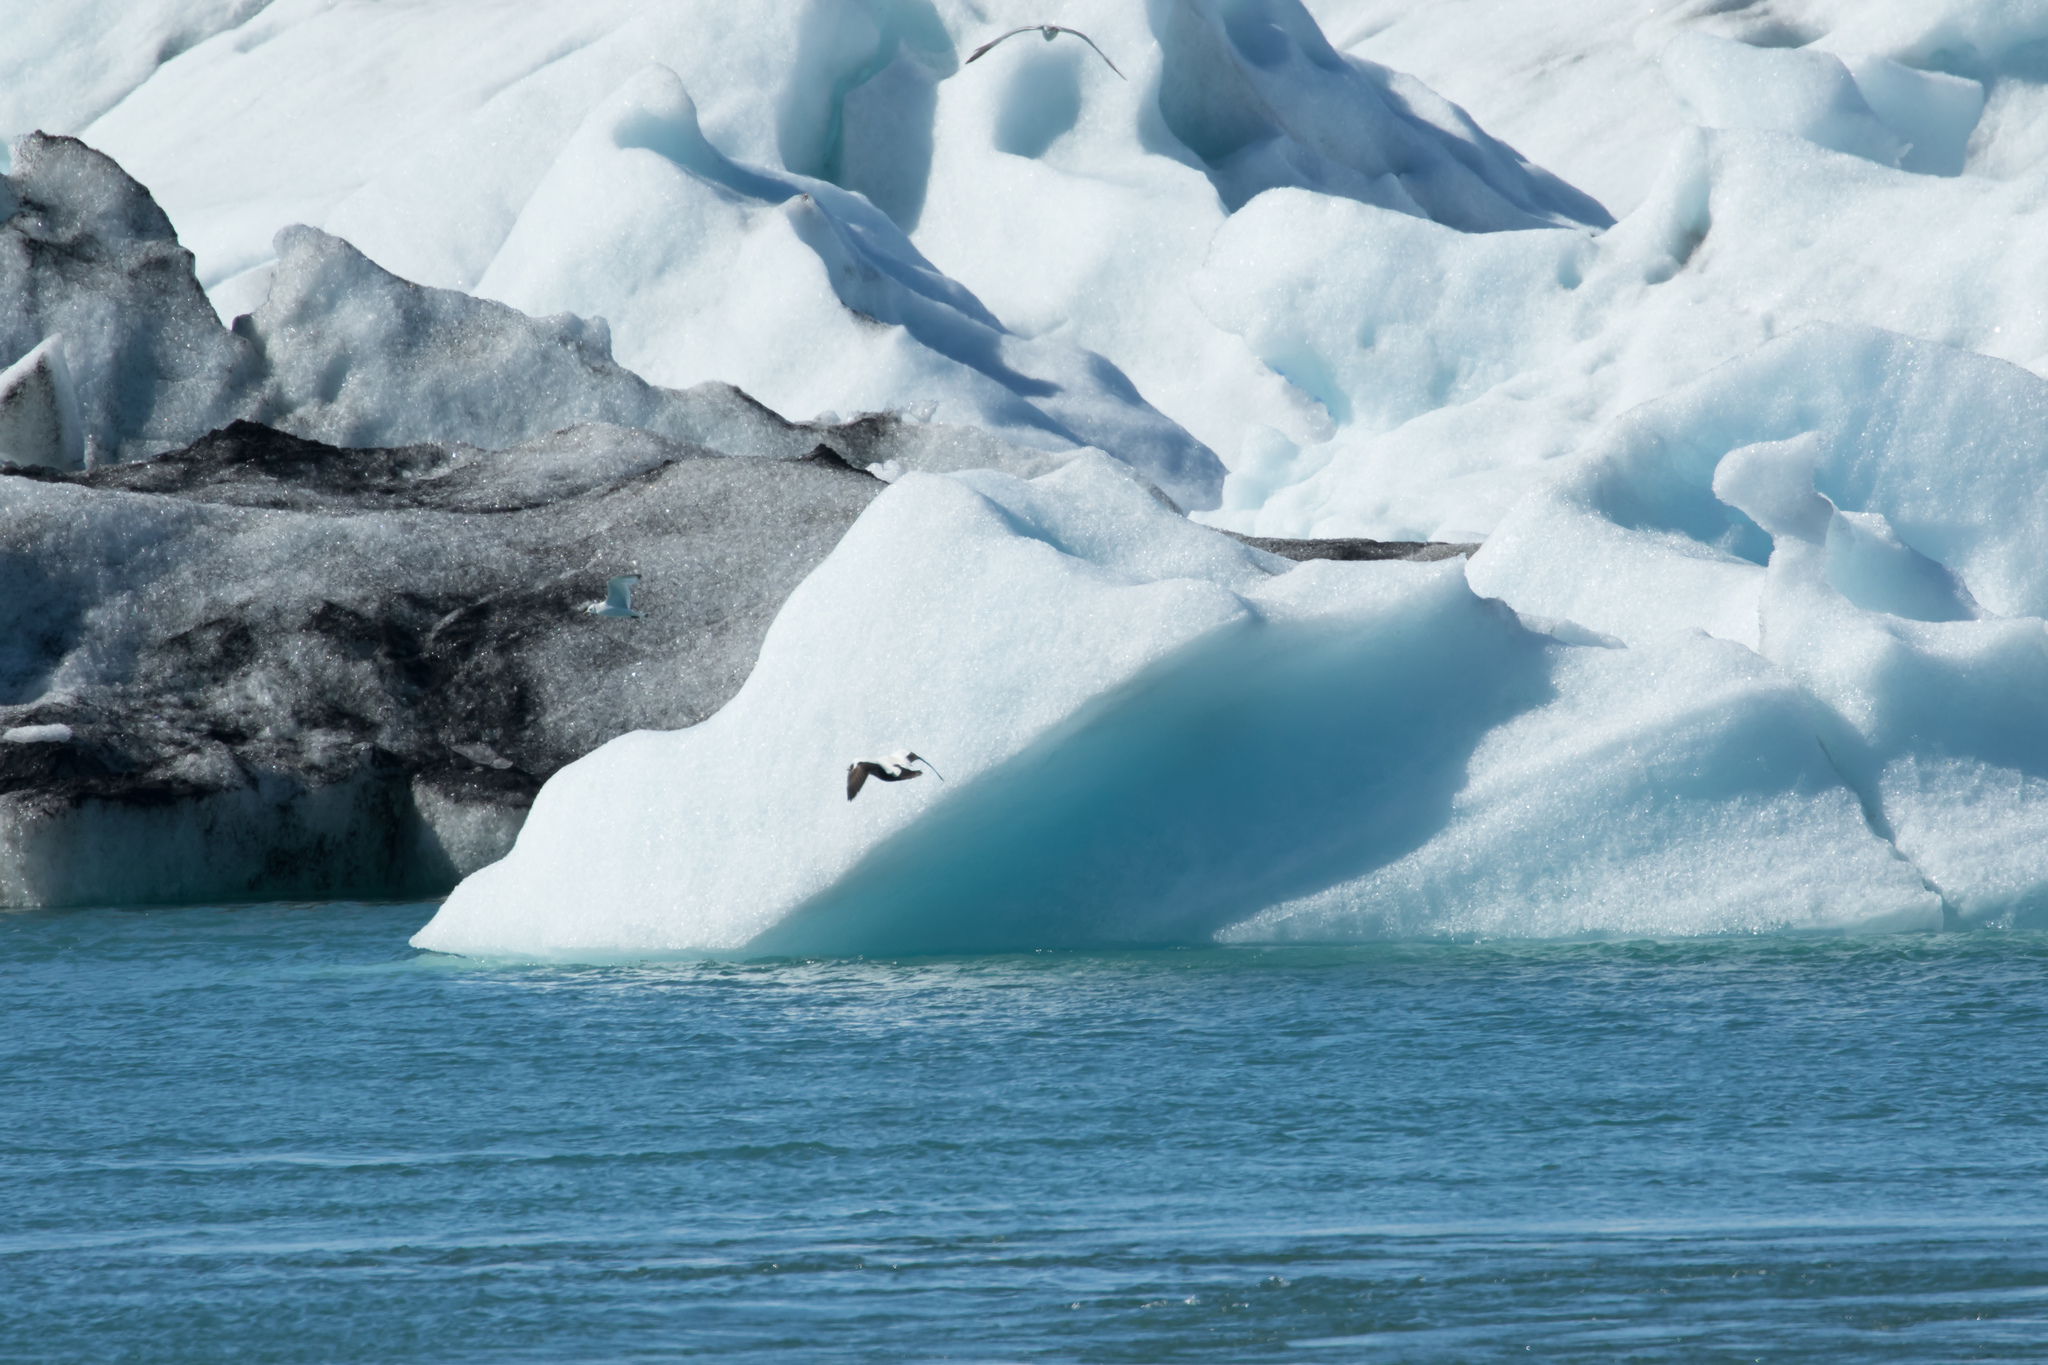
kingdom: Animalia
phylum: Chordata
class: Aves
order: Anseriformes
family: Anatidae
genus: Somateria
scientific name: Somateria mollissima
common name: Common eider
